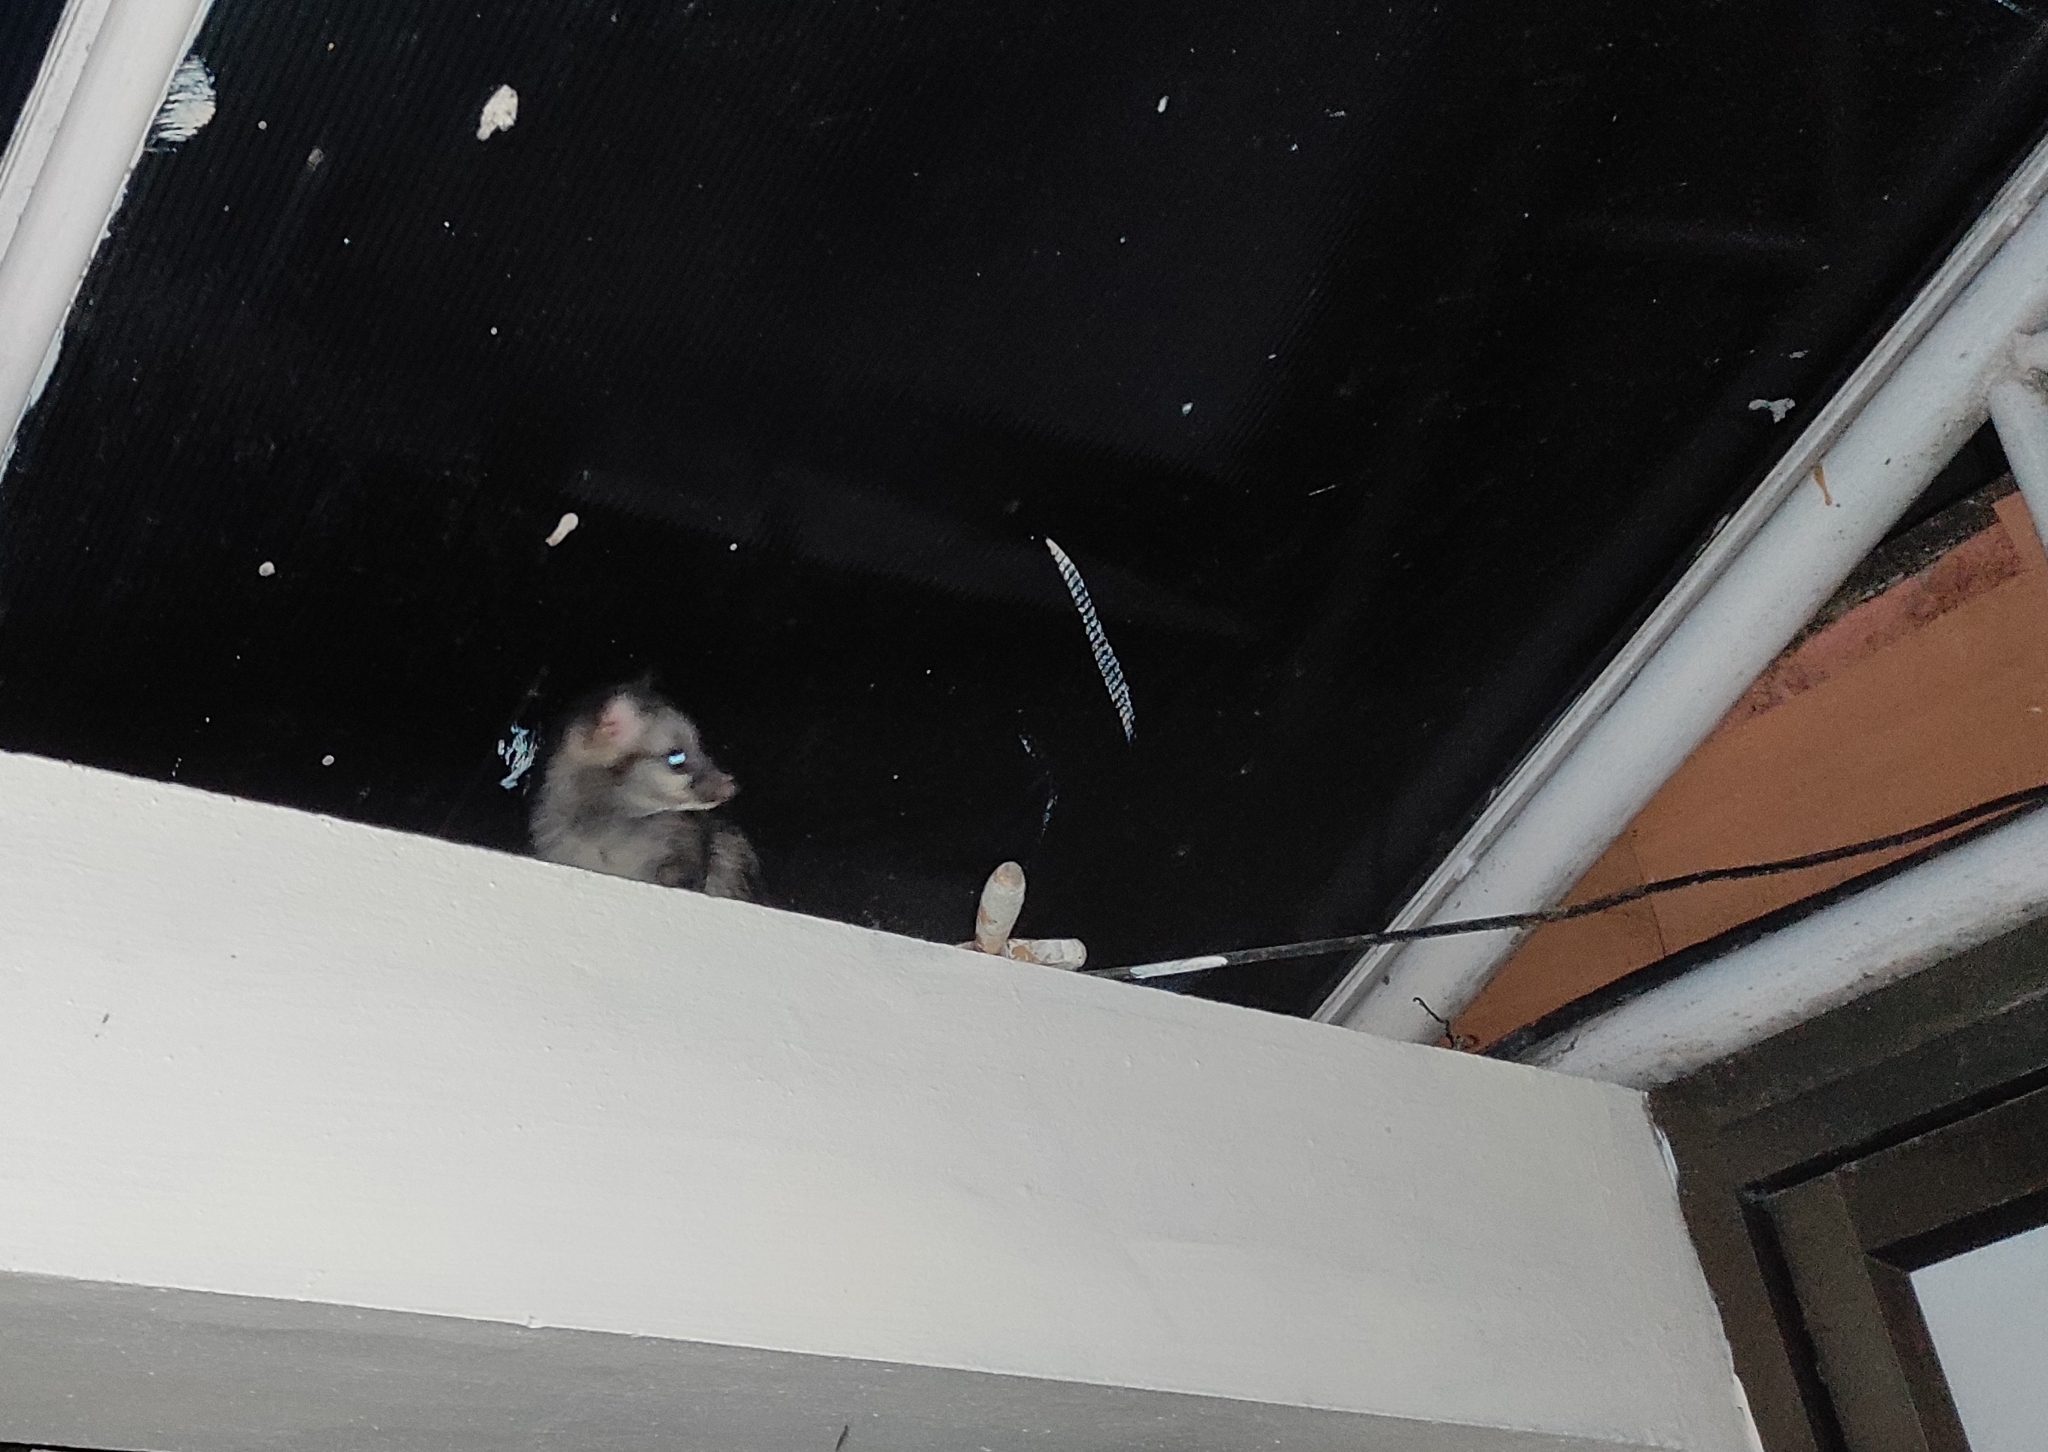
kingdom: Animalia
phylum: Chordata
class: Mammalia
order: Carnivora
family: Viverridae
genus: Paradoxurus
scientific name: Paradoxurus hermaphroditus
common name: Common palm civet
